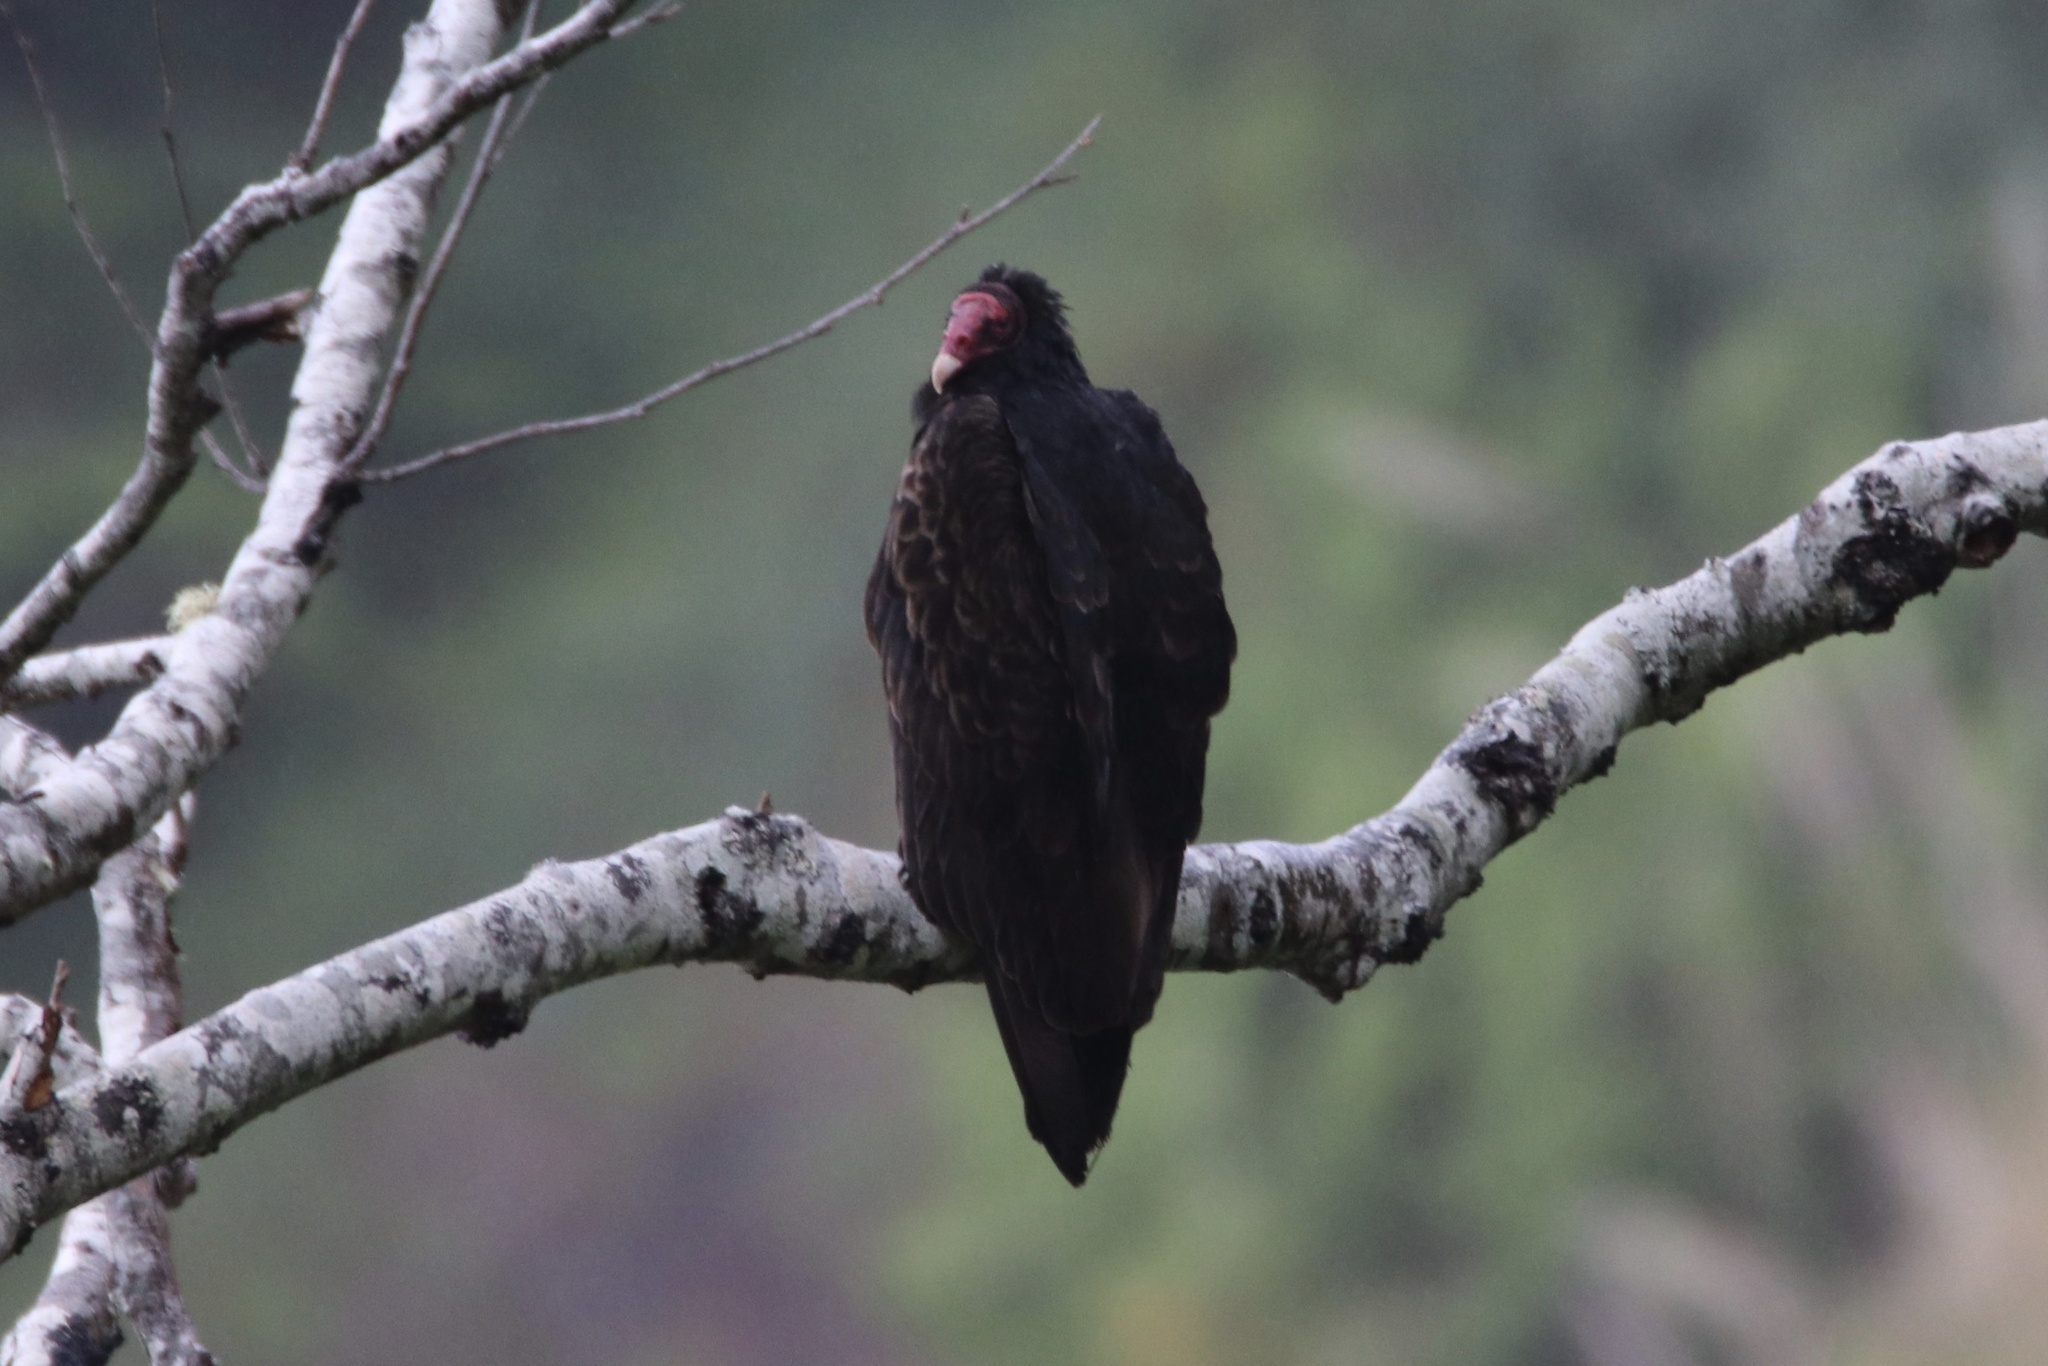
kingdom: Animalia
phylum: Chordata
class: Aves
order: Accipitriformes
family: Cathartidae
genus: Cathartes
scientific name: Cathartes aura
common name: Turkey vulture
